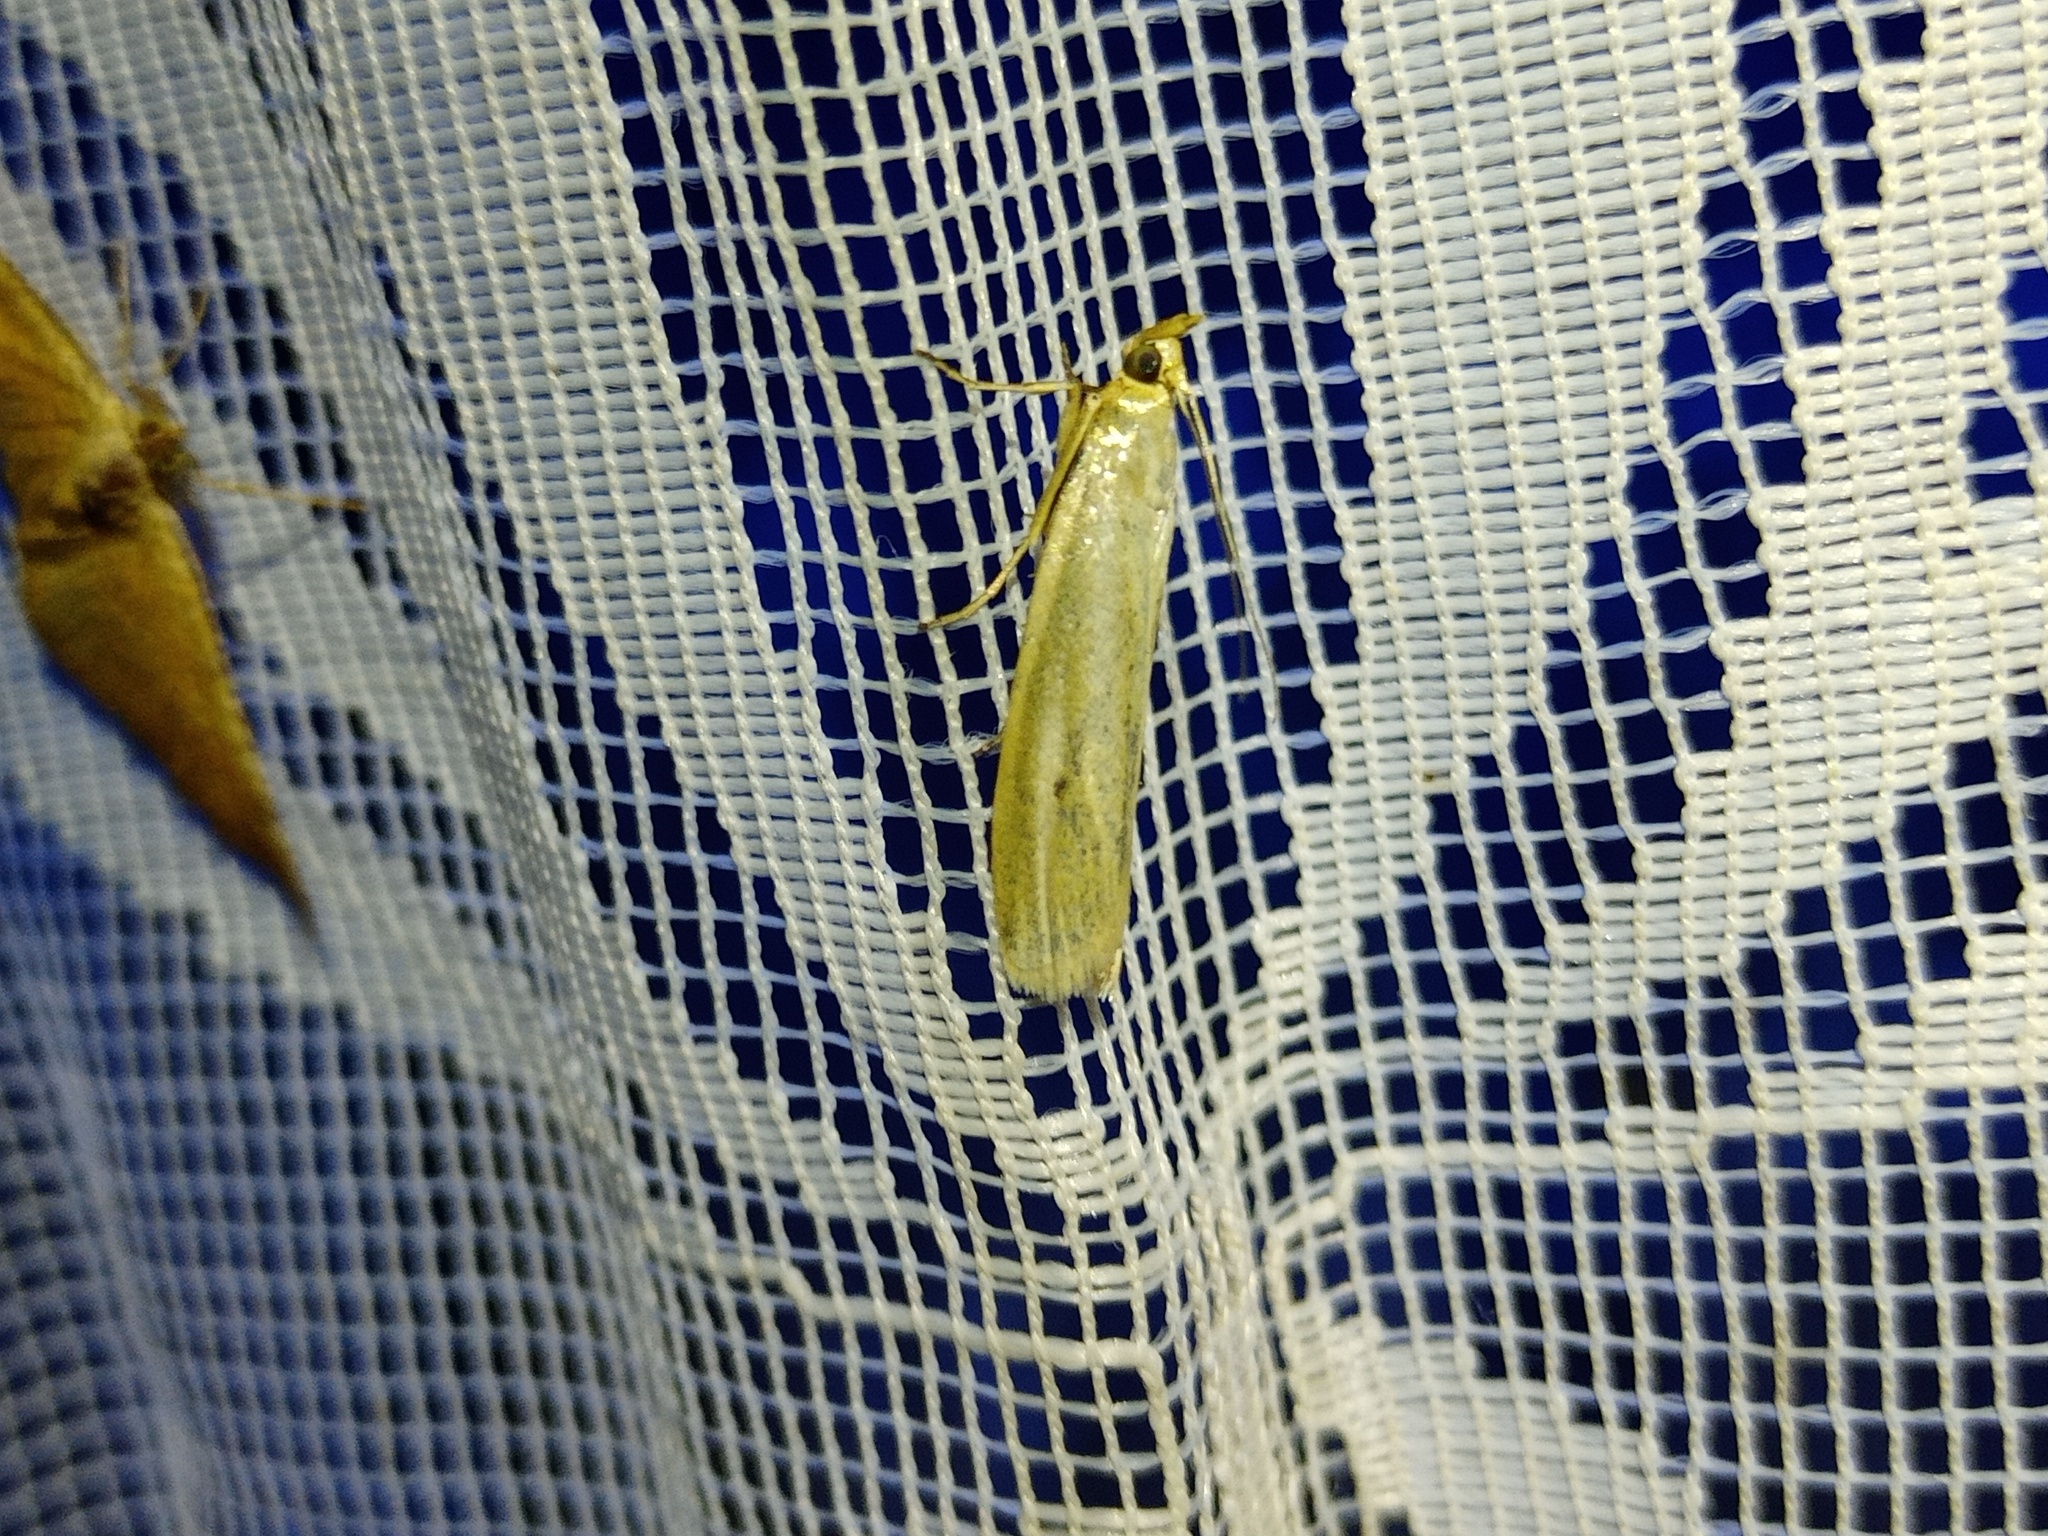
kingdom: Animalia
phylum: Arthropoda
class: Insecta
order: Lepidoptera
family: Pyralidae
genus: Selagia
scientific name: Selagia argyrella
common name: Silvery knot-horn
